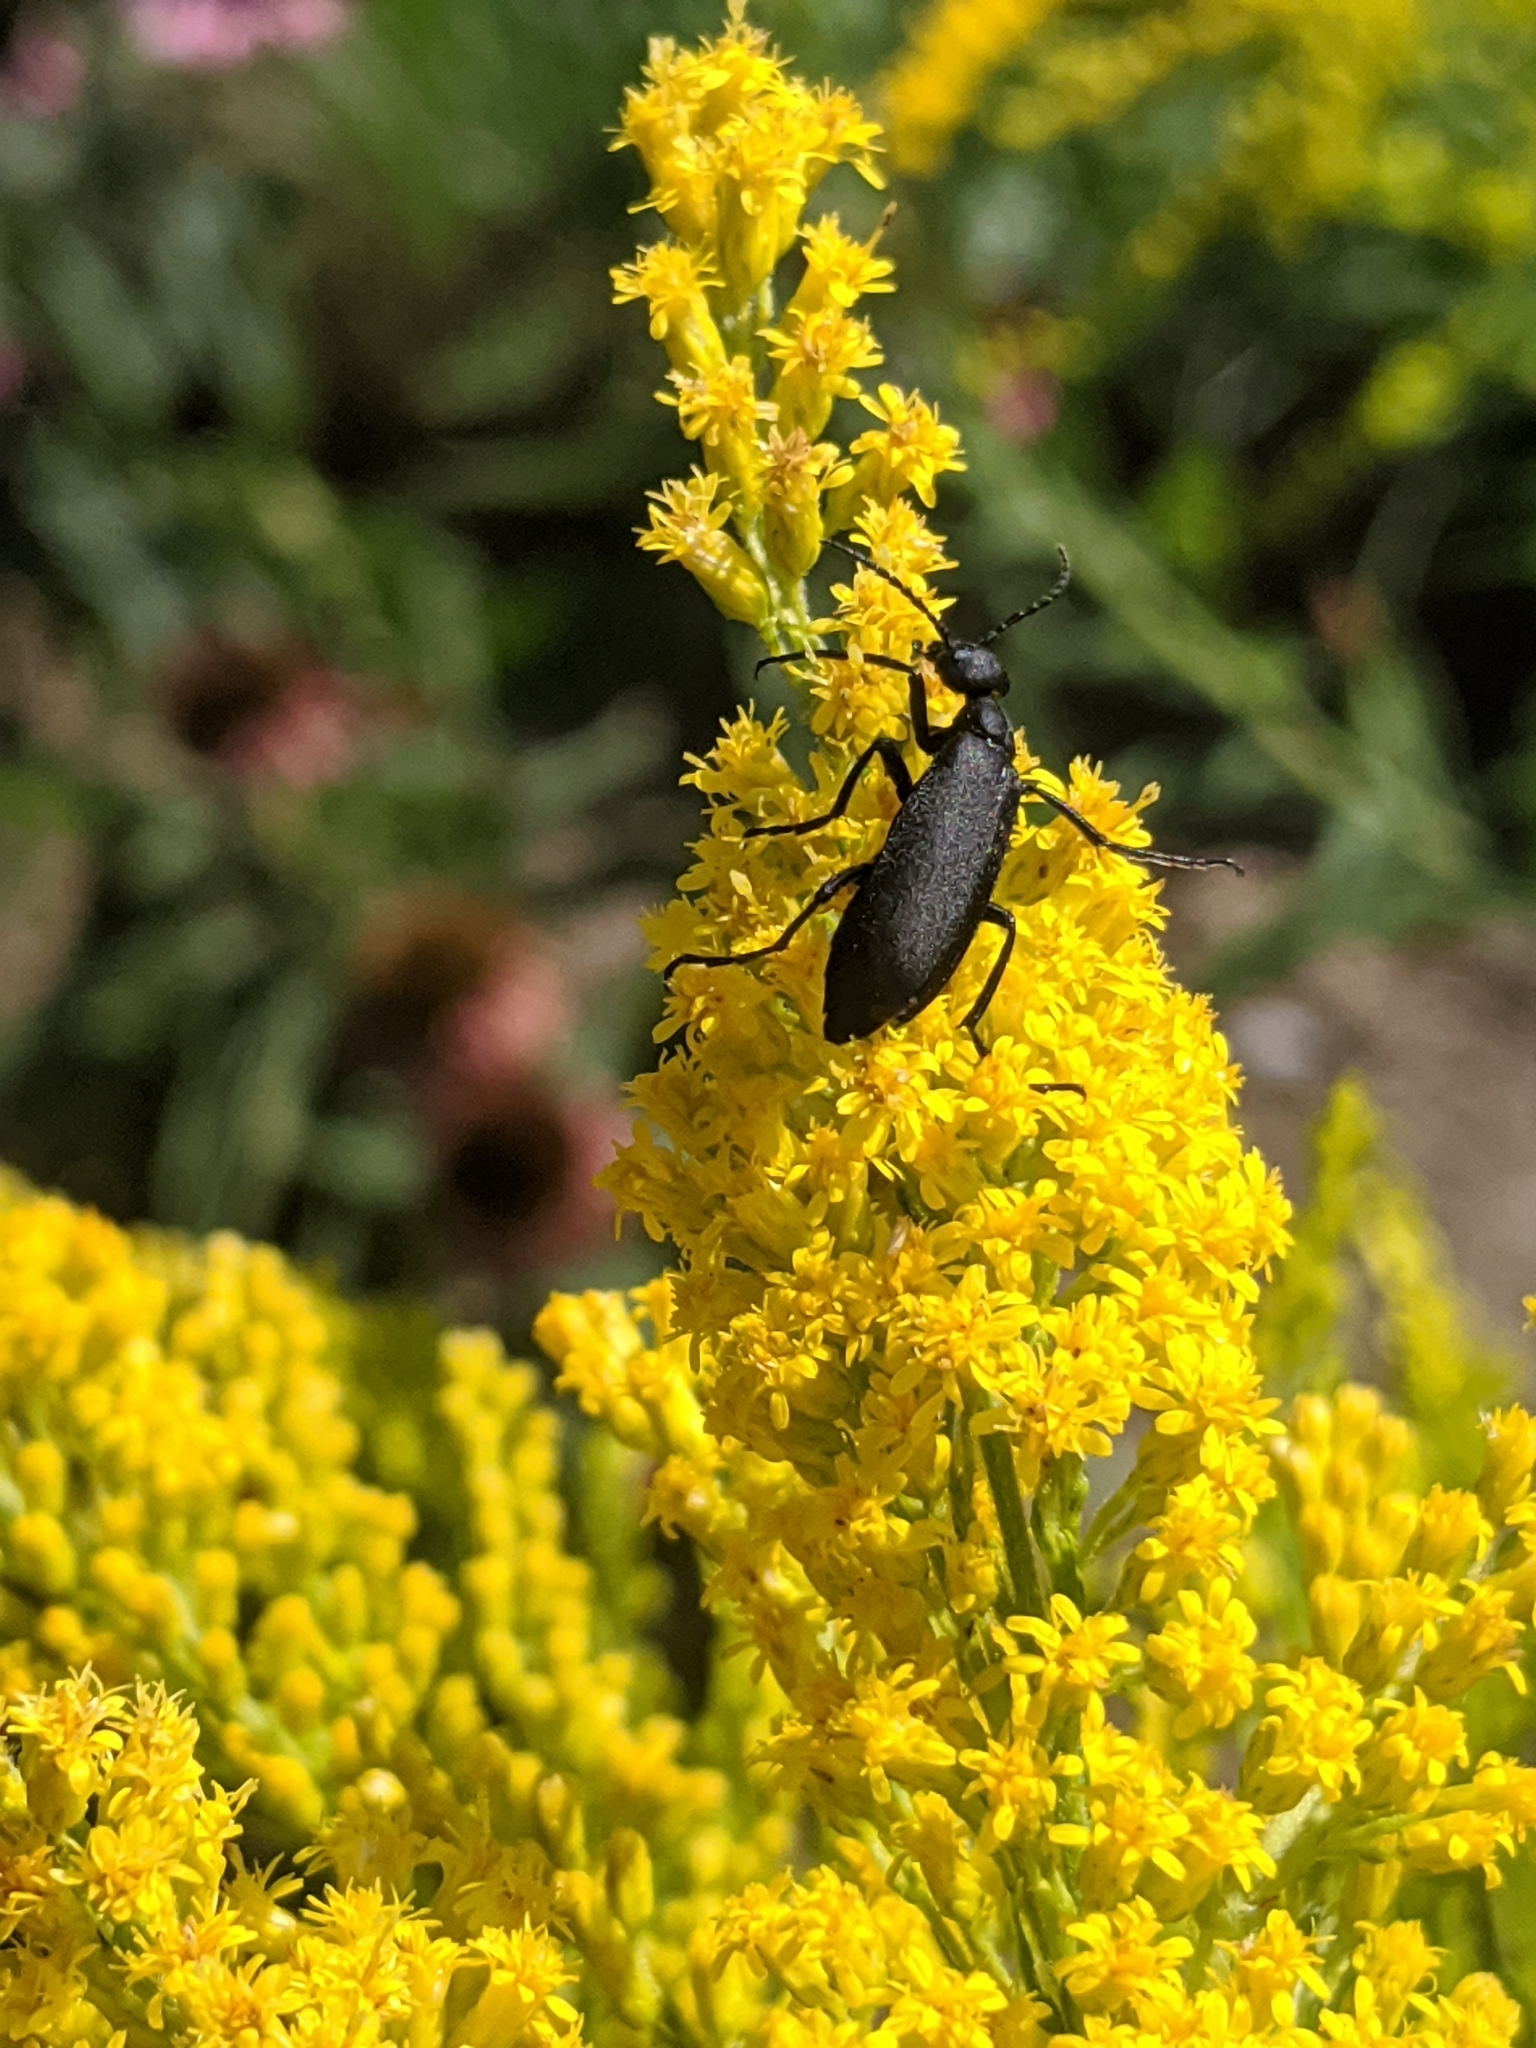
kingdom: Animalia
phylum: Arthropoda
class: Insecta
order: Coleoptera
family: Meloidae
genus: Epicauta
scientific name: Epicauta pensylvanica
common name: Black blister beetle
